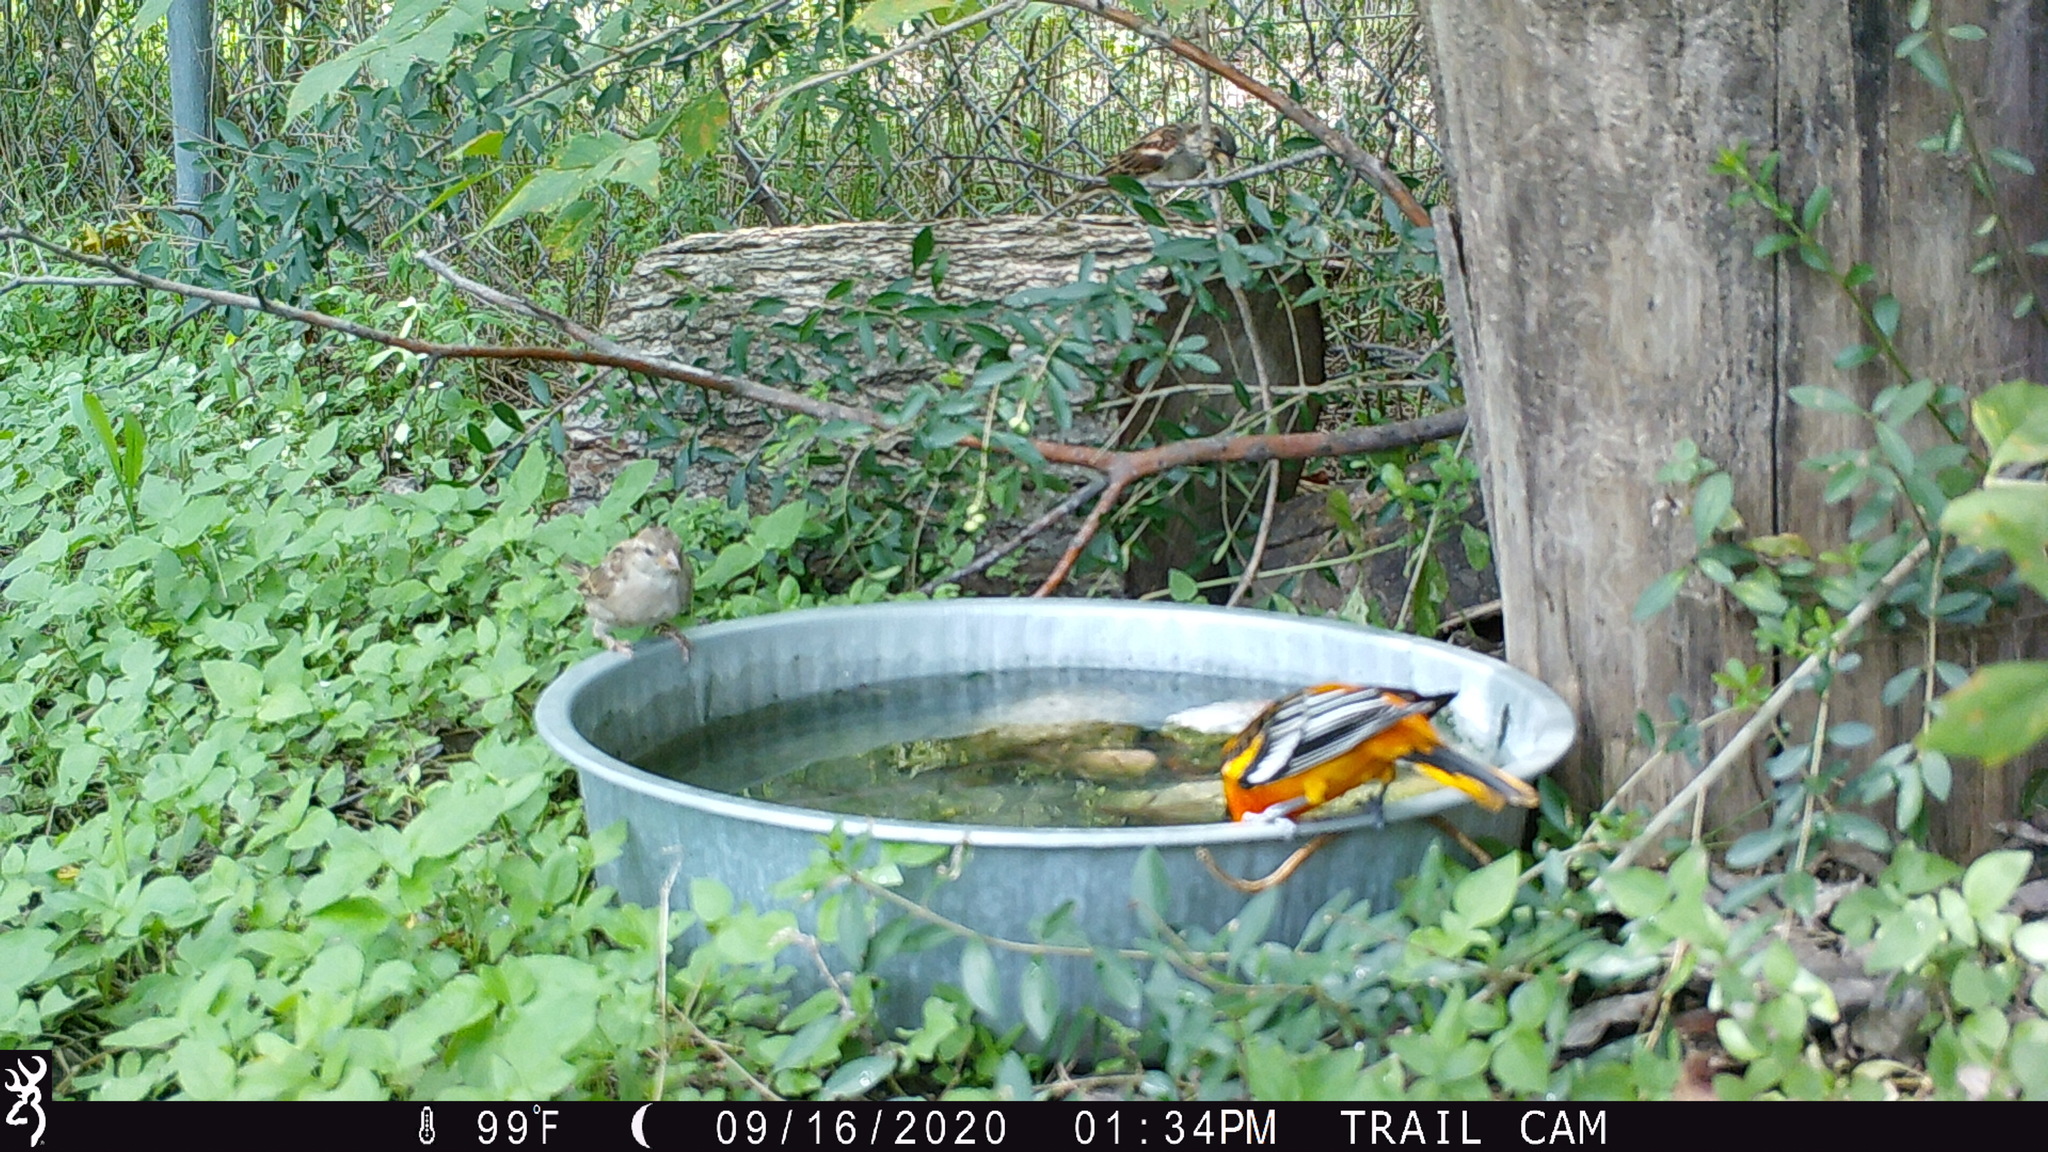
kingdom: Animalia
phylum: Chordata
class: Aves
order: Passeriformes
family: Icteridae
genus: Icterus
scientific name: Icterus galbula
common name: Baltimore oriole
